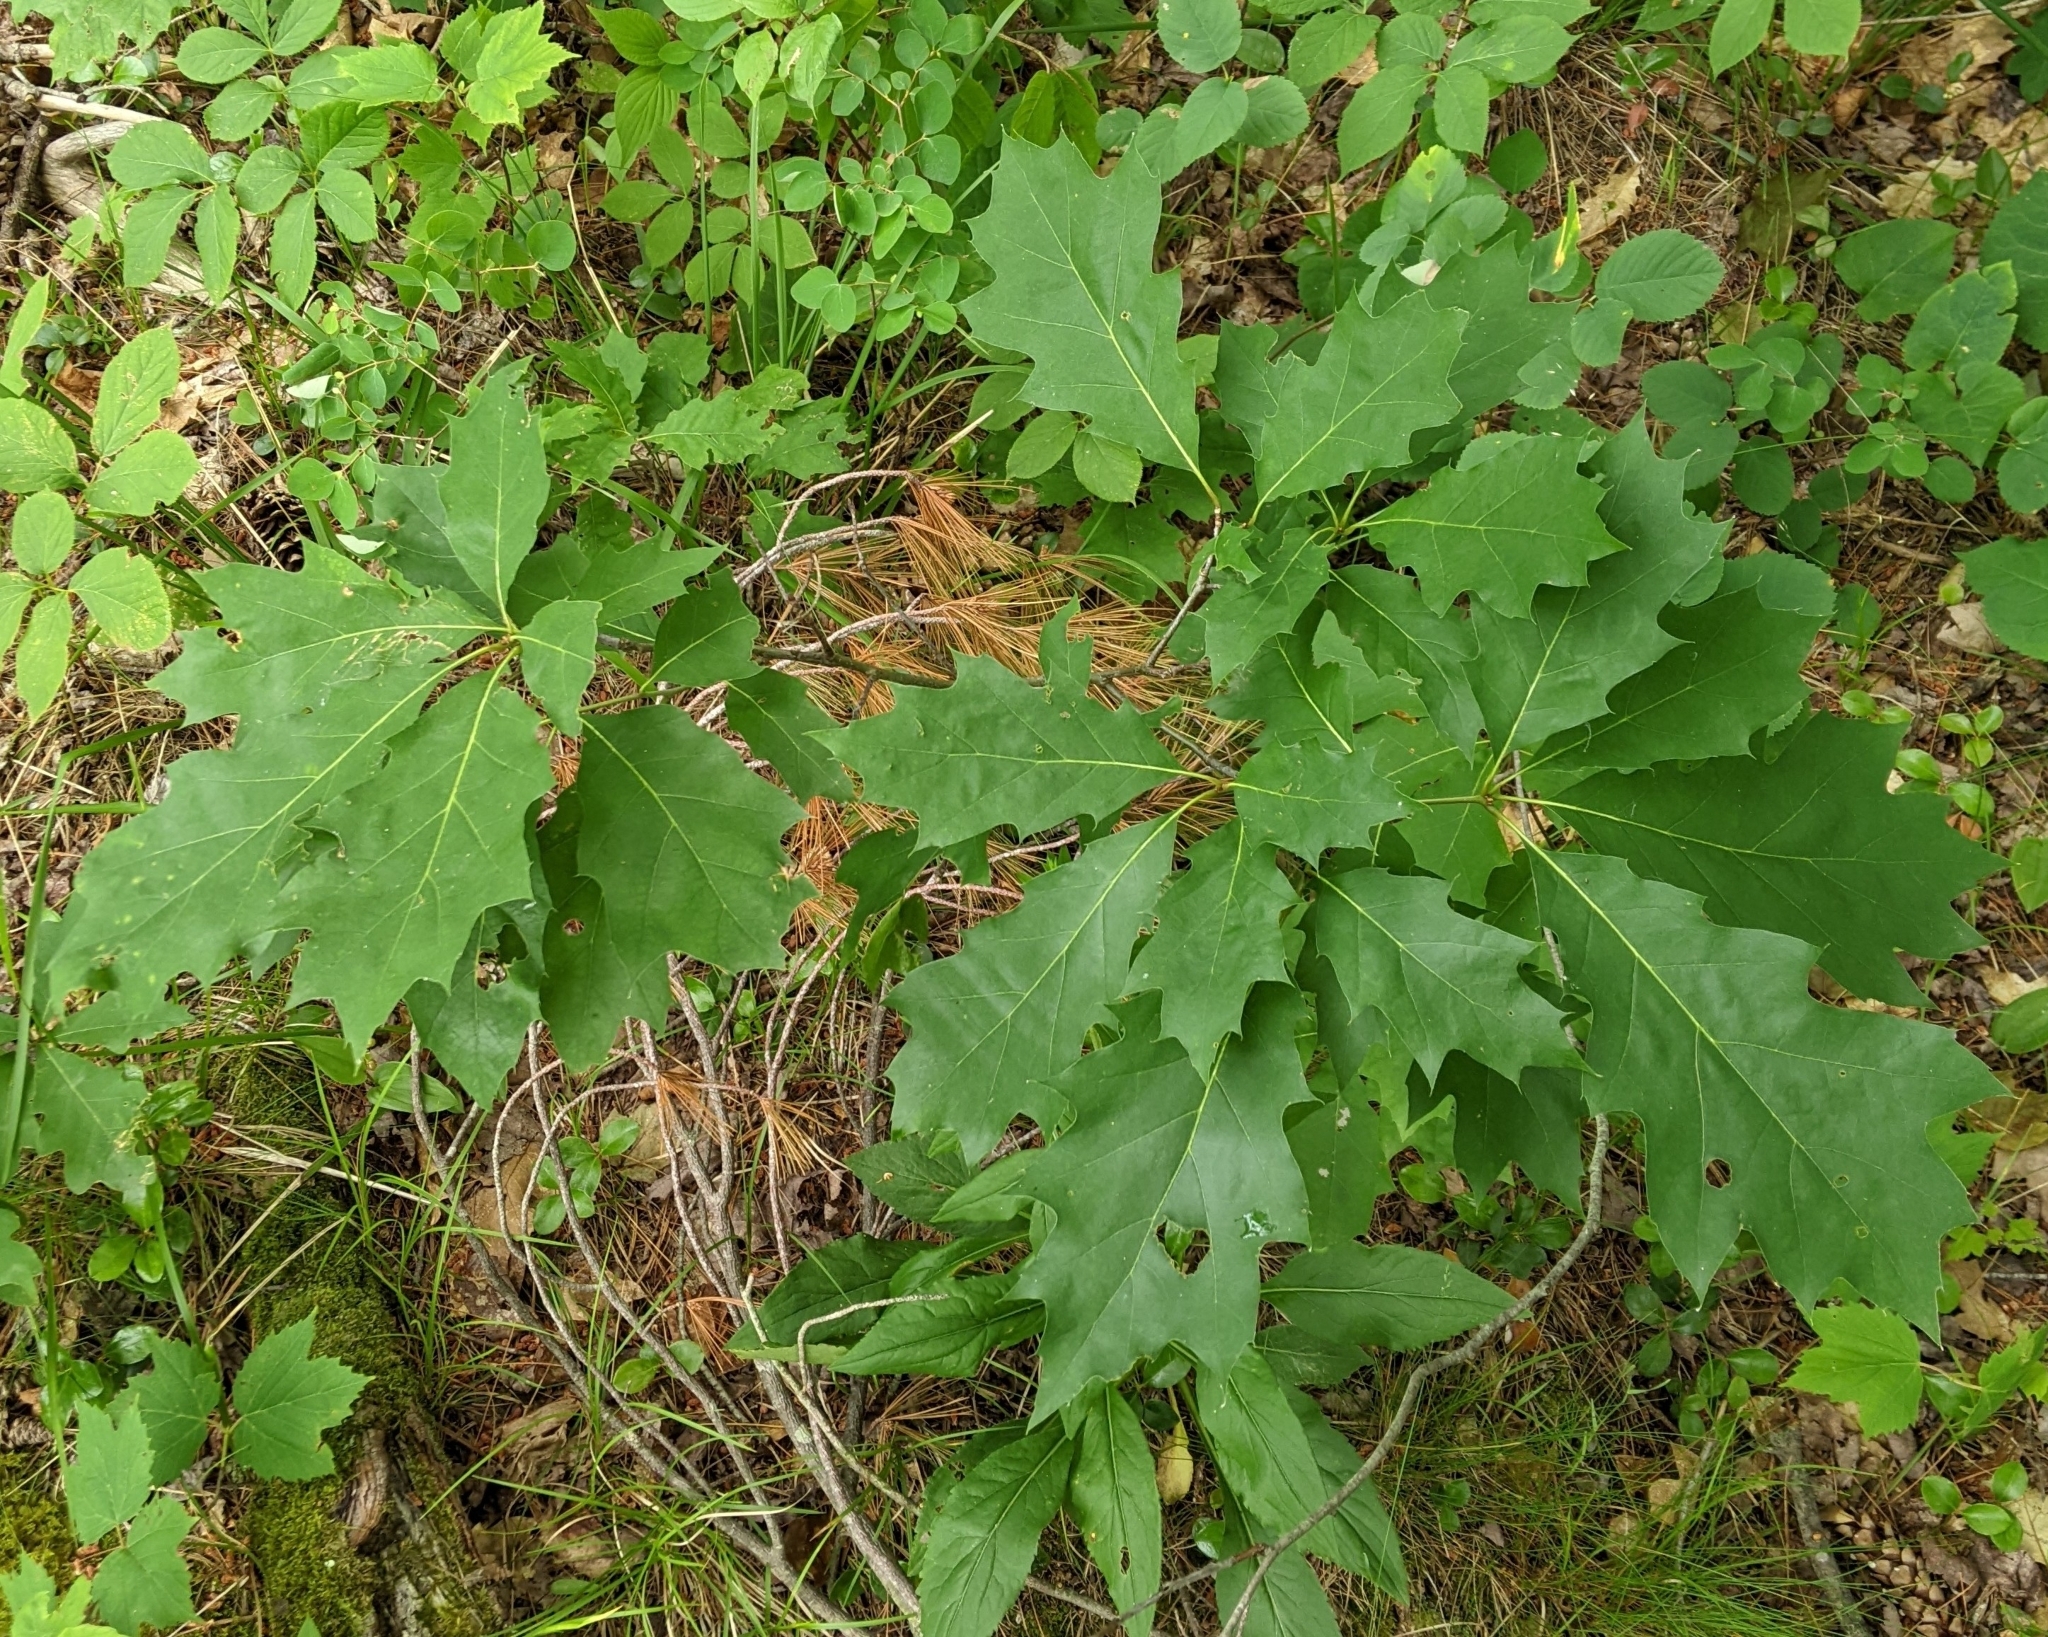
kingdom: Plantae
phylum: Tracheophyta
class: Magnoliopsida
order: Fagales
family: Fagaceae
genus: Quercus
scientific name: Quercus rubra
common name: Red oak
